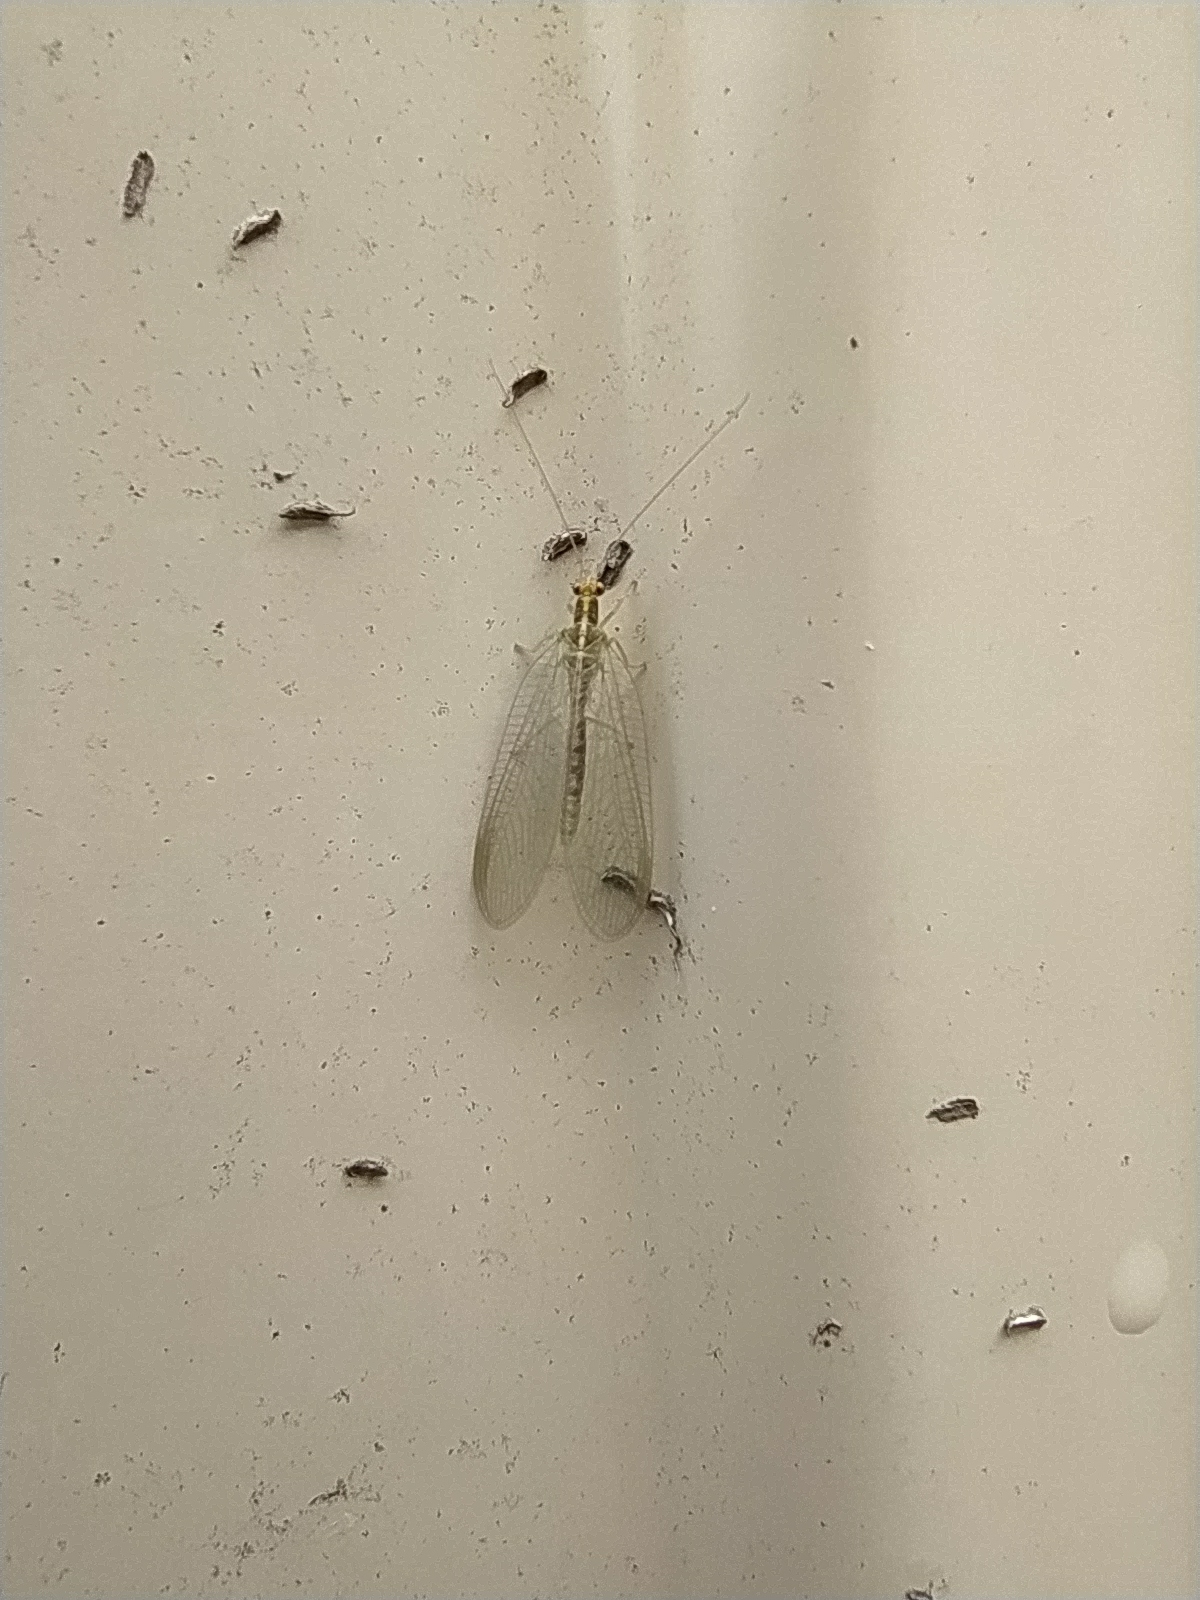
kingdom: Animalia
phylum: Arthropoda
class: Insecta
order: Neuroptera
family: Chrysopidae
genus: Chrysoperla
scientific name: Chrysoperla
